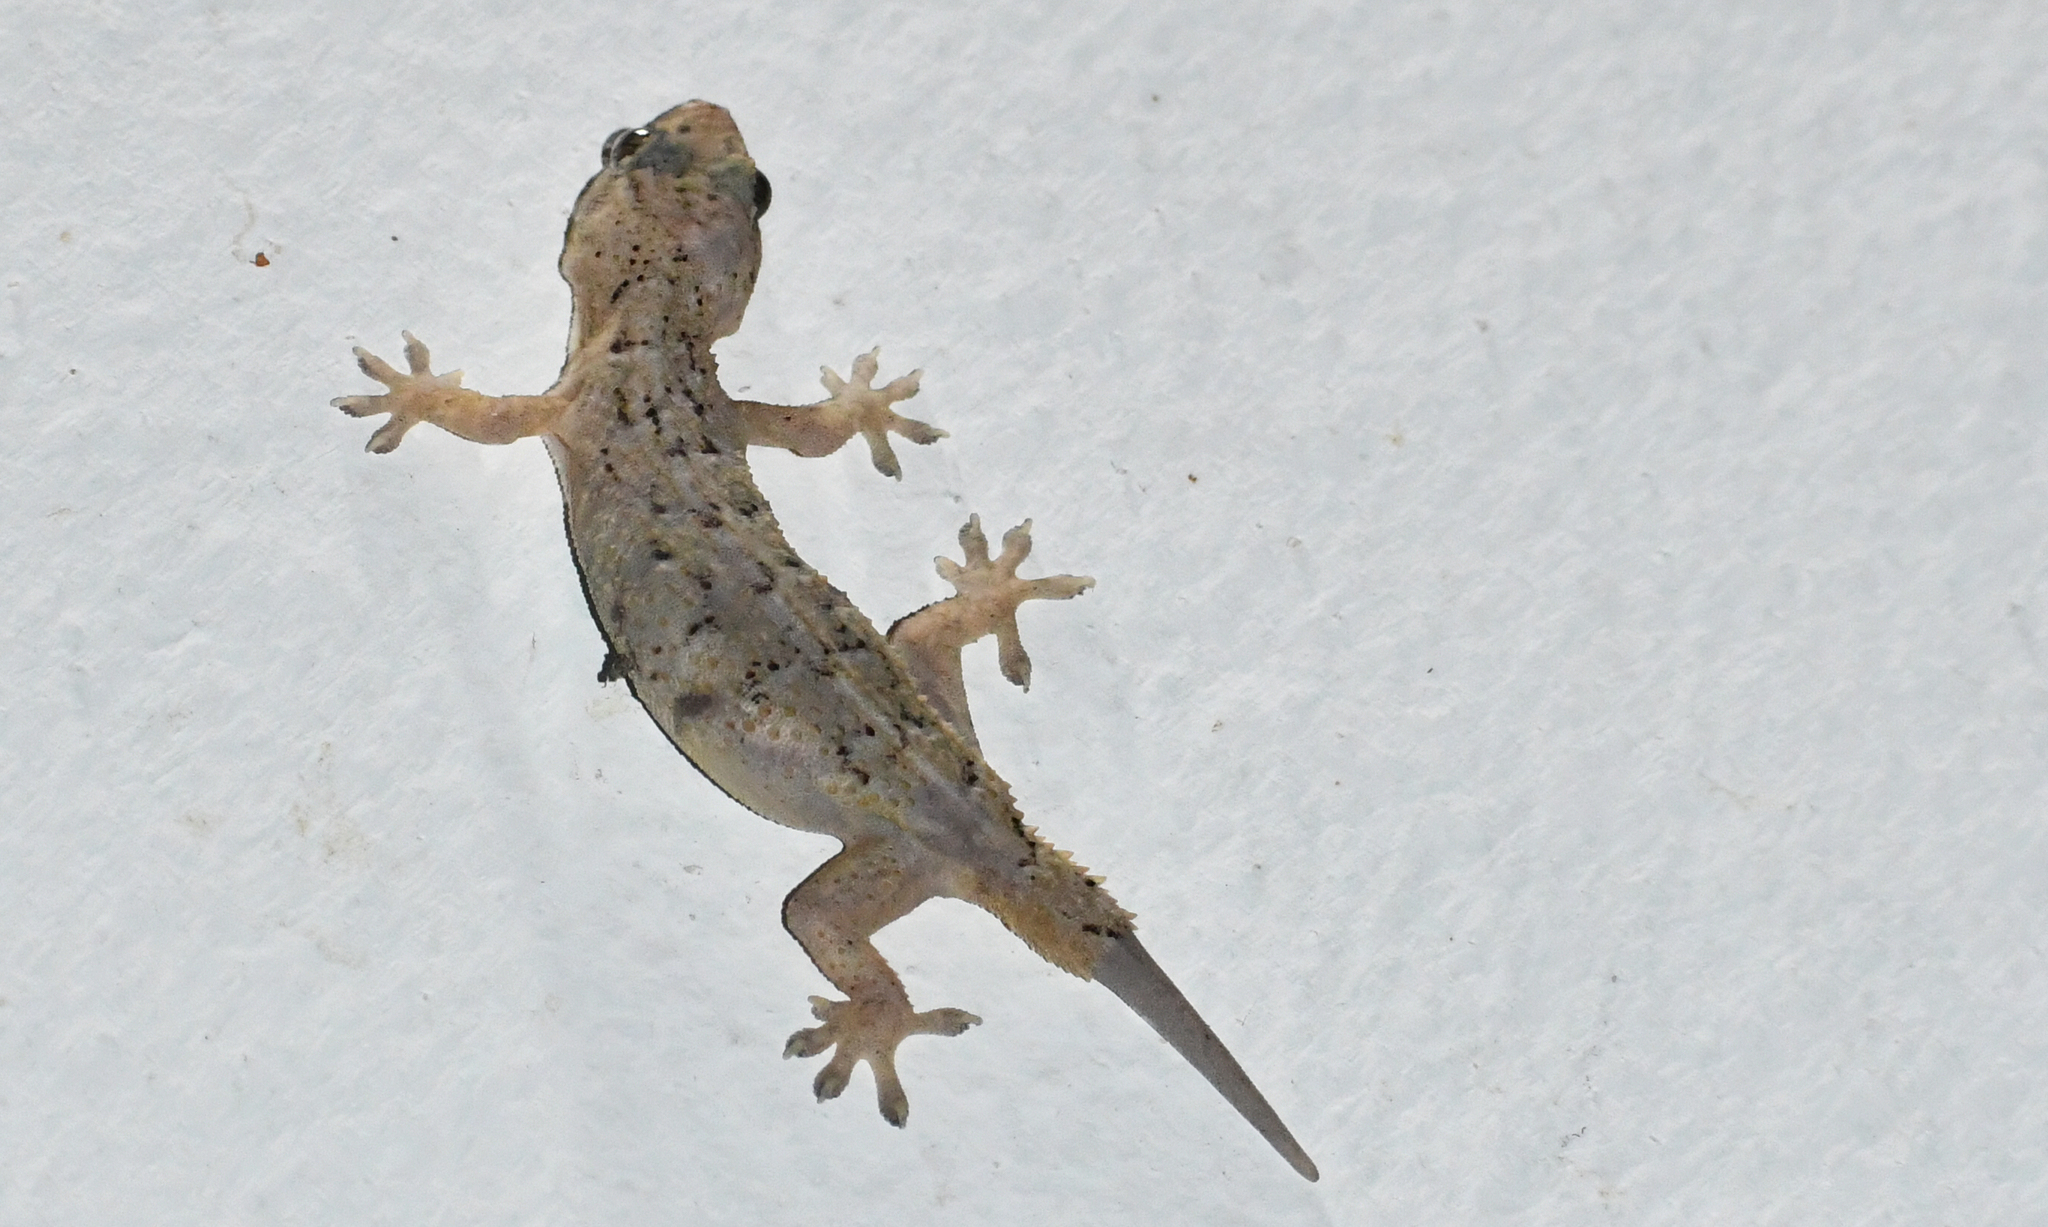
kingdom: Animalia
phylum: Chordata
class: Squamata
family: Gekkonidae
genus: Hemidactylus
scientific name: Hemidactylus palaichthus
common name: Antilles leaf-toed gecko
